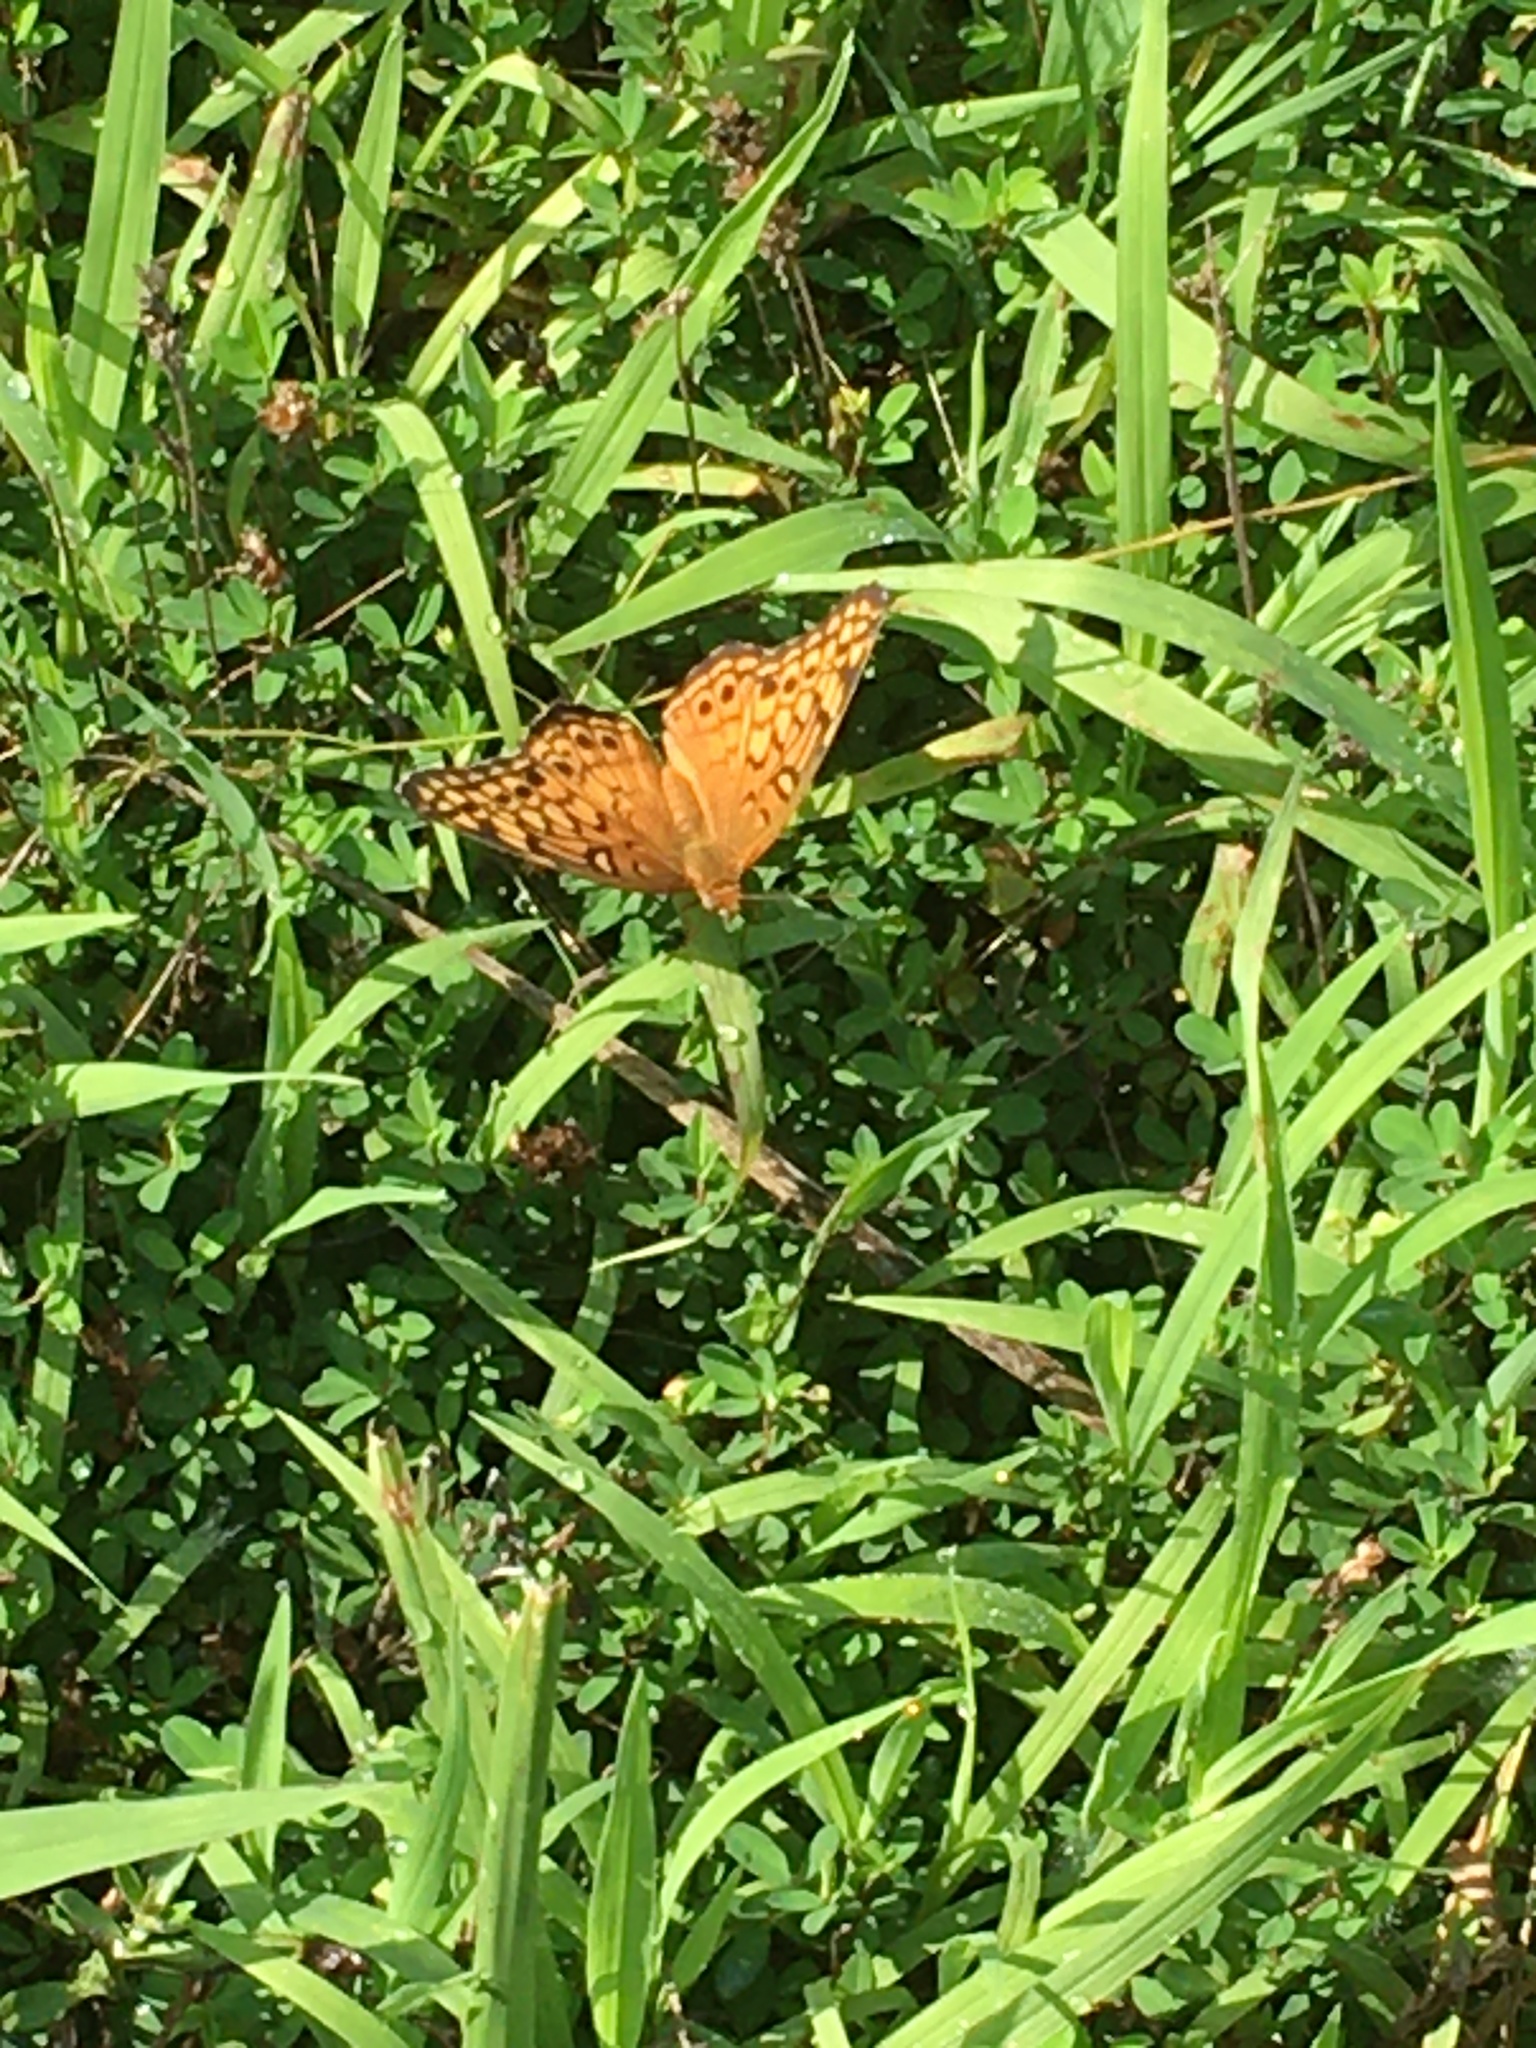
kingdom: Animalia
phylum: Arthropoda
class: Insecta
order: Lepidoptera
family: Nymphalidae
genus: Euptoieta
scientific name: Euptoieta claudia
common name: Variegated fritillary
